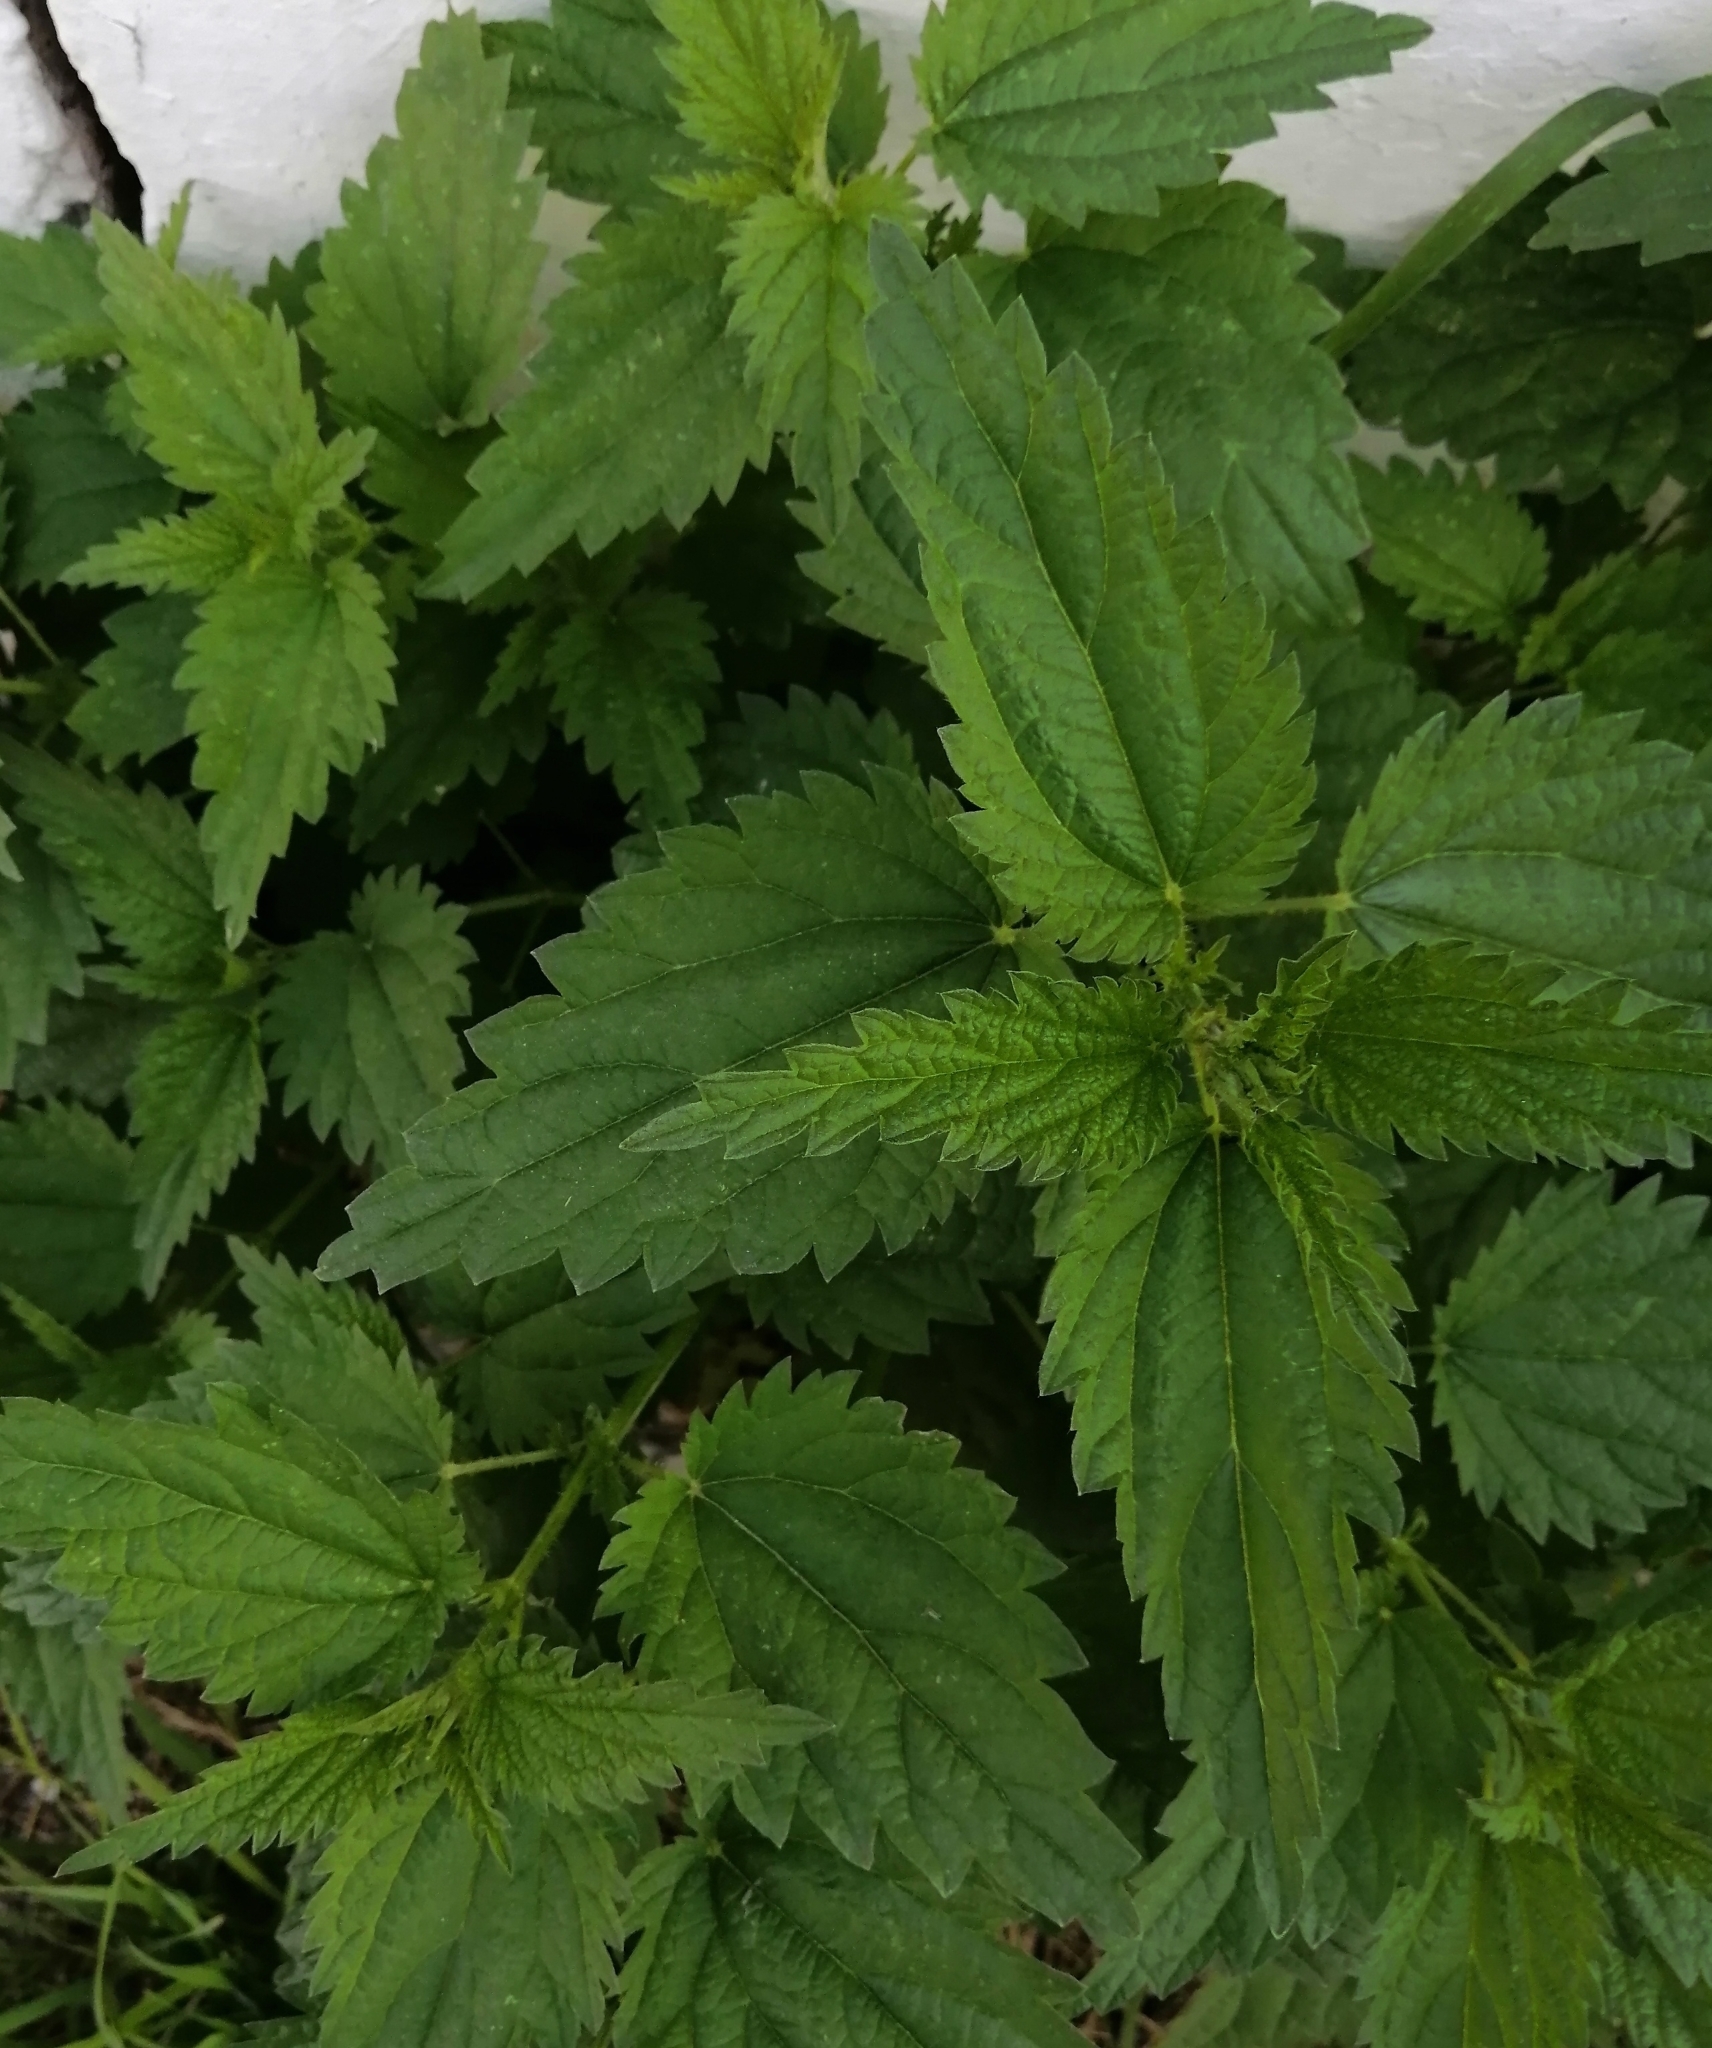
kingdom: Plantae
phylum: Tracheophyta
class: Magnoliopsida
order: Rosales
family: Urticaceae
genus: Urtica
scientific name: Urtica dioica
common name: Common nettle
